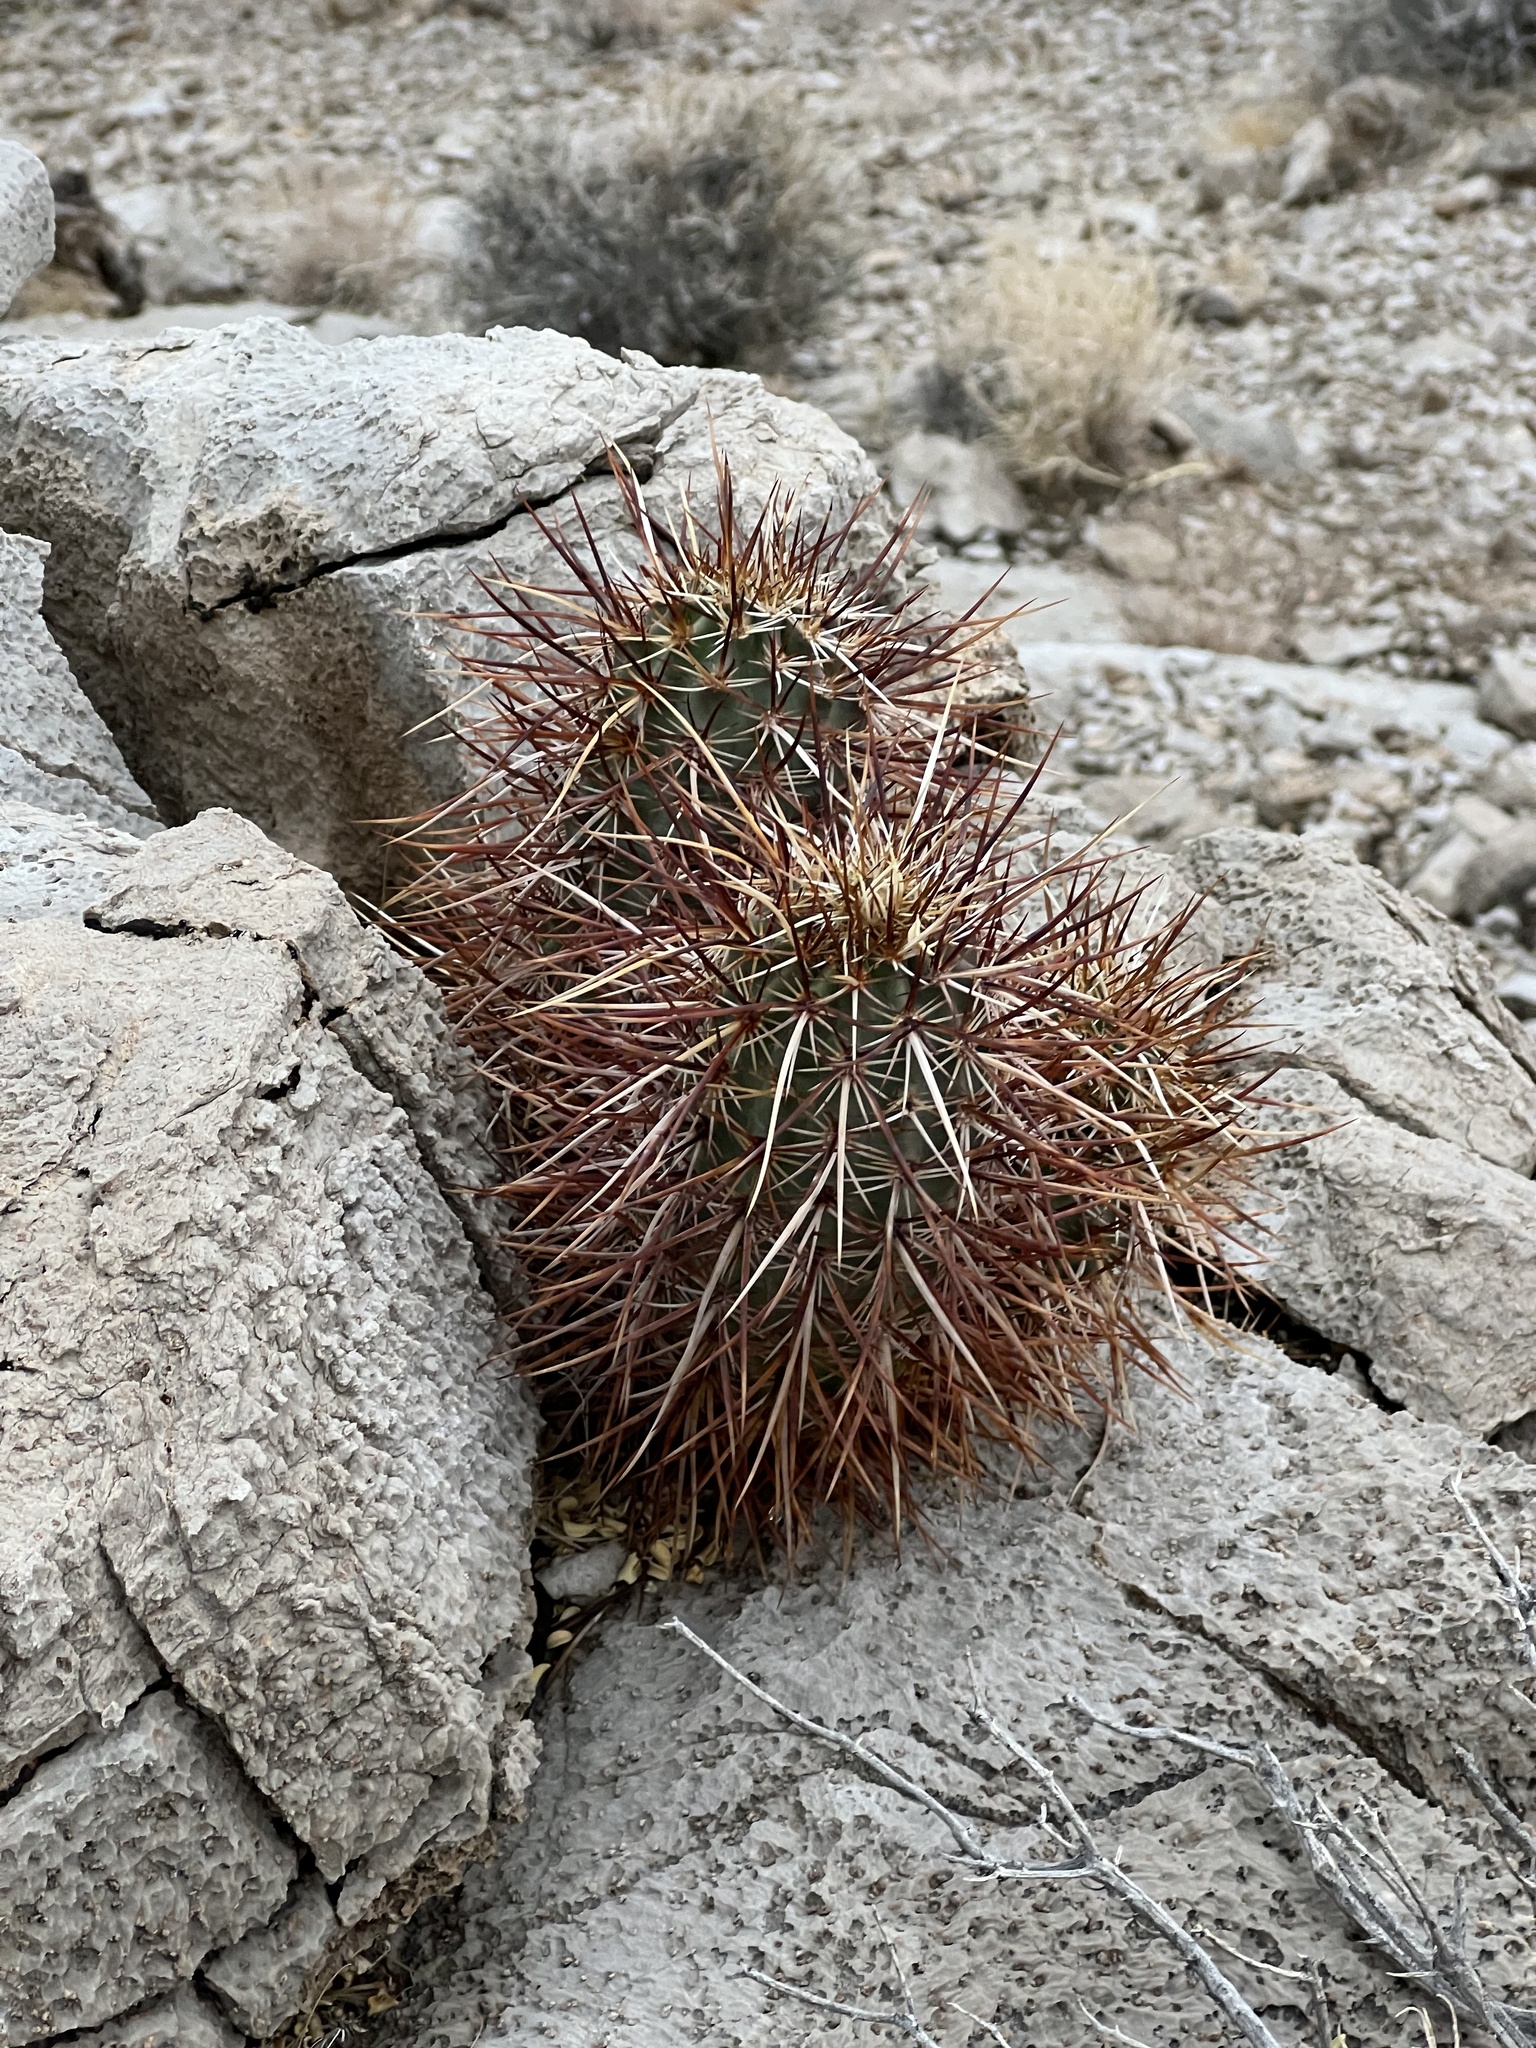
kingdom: Plantae
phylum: Tracheophyta
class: Magnoliopsida
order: Caryophyllales
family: Cactaceae
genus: Echinocereus
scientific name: Echinocereus engelmannii
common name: Engelmann's hedgehog cactus
